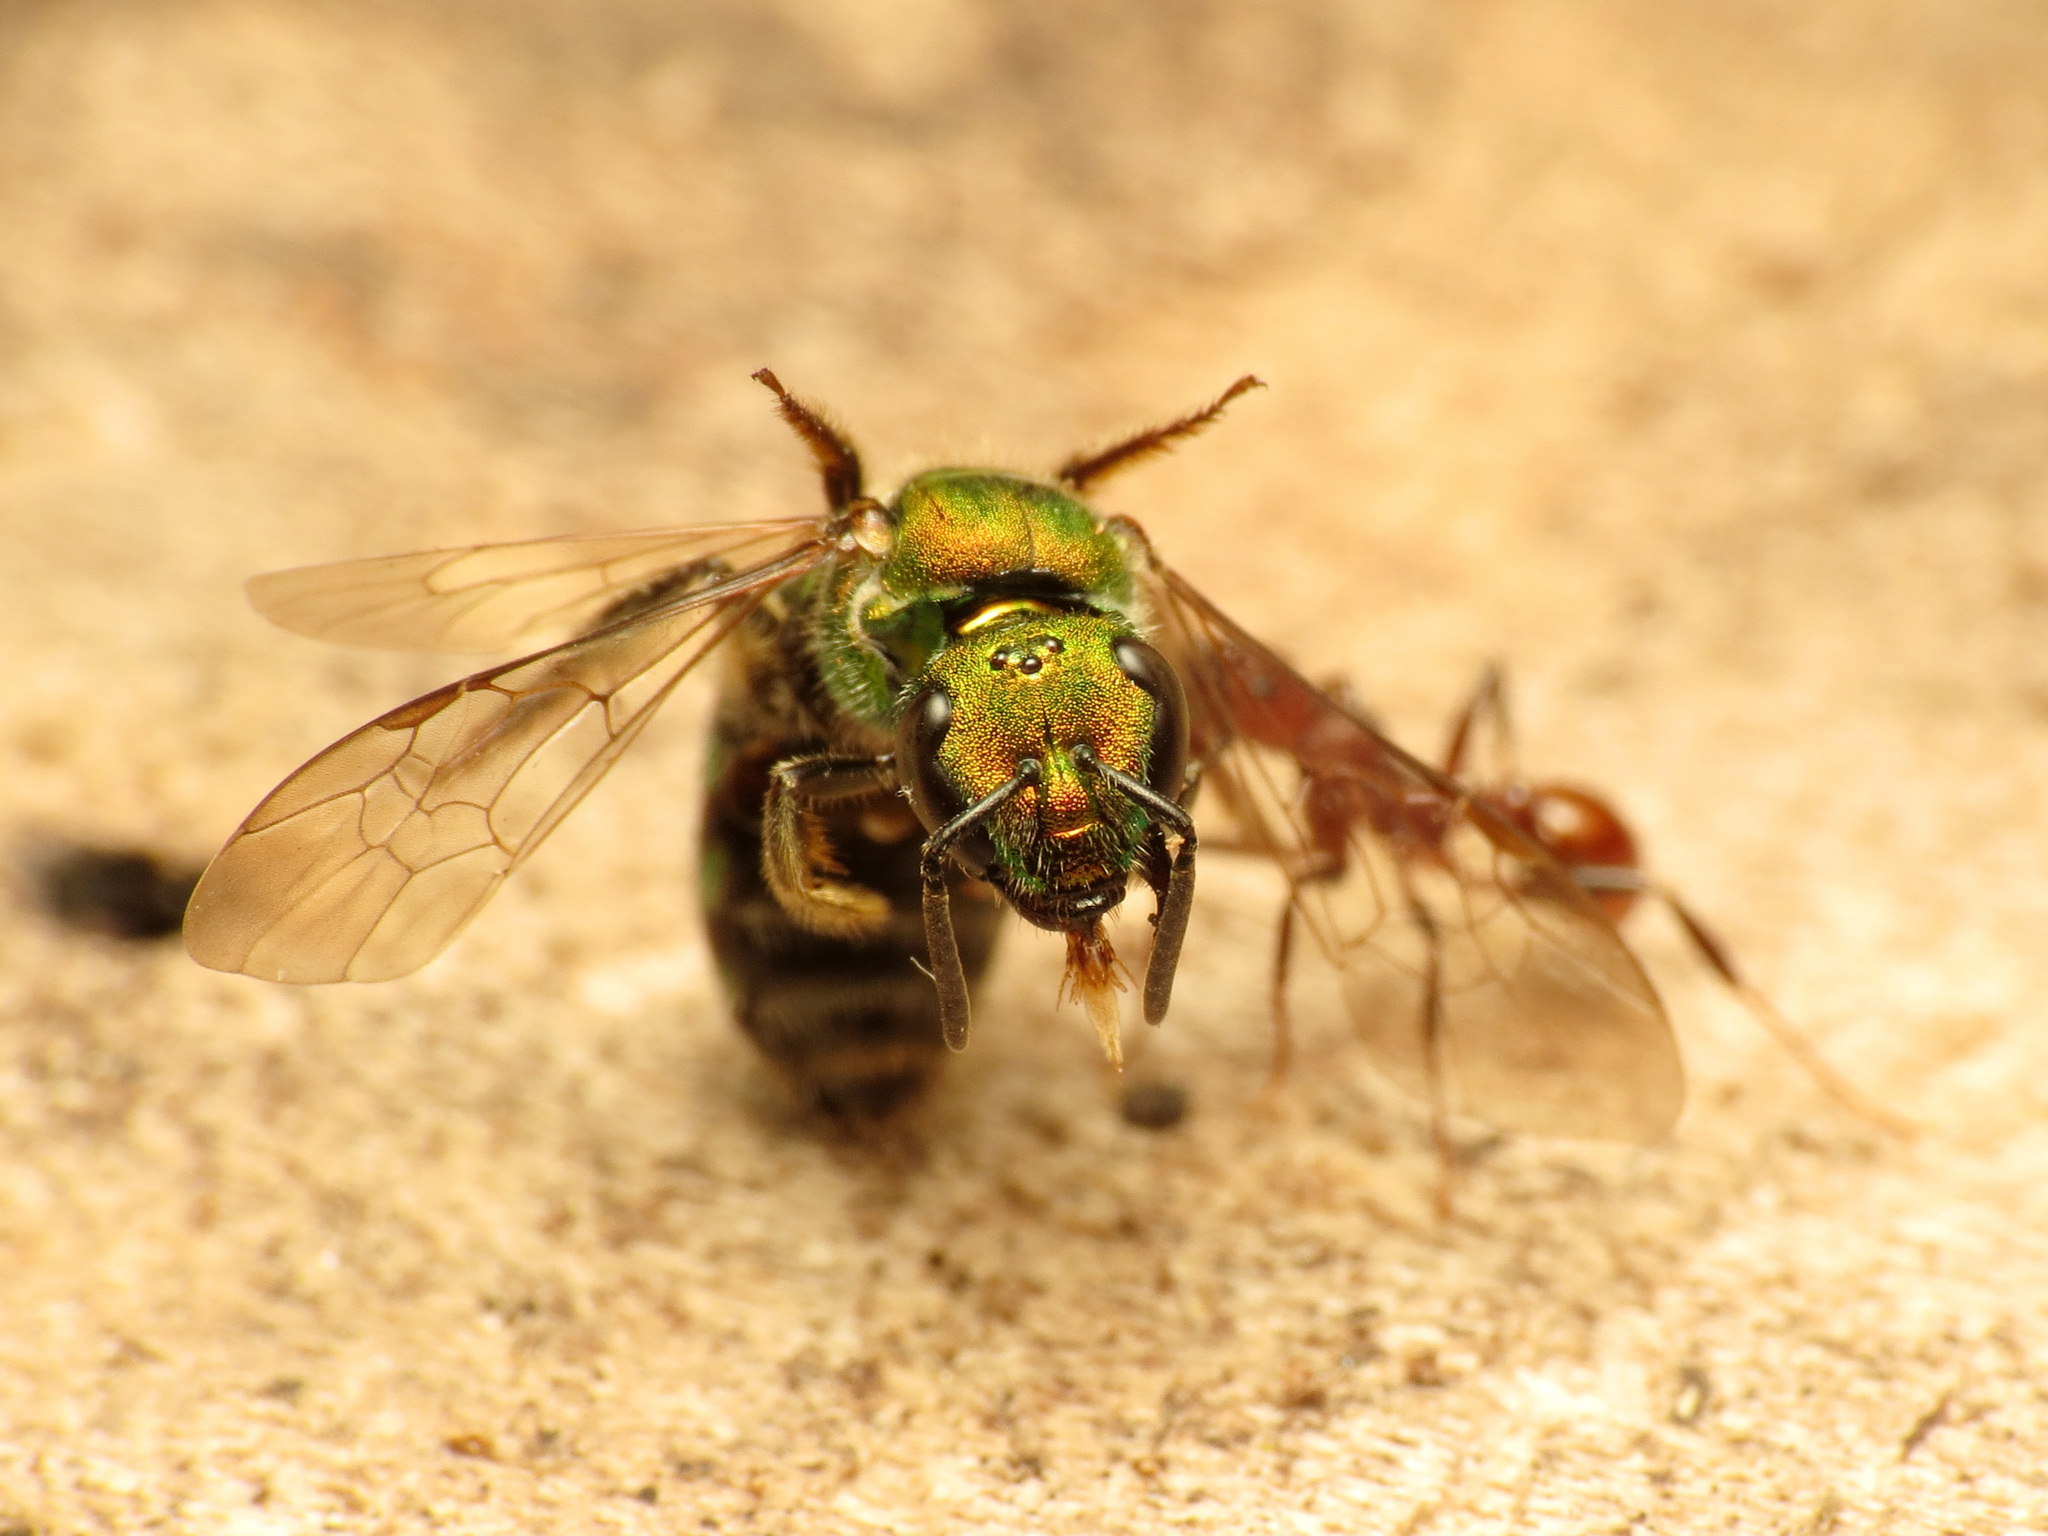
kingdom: Animalia
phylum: Arthropoda
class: Insecta
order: Hymenoptera
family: Halictidae
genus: Augochlora
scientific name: Augochlora pura
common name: Pure green sweat bee
